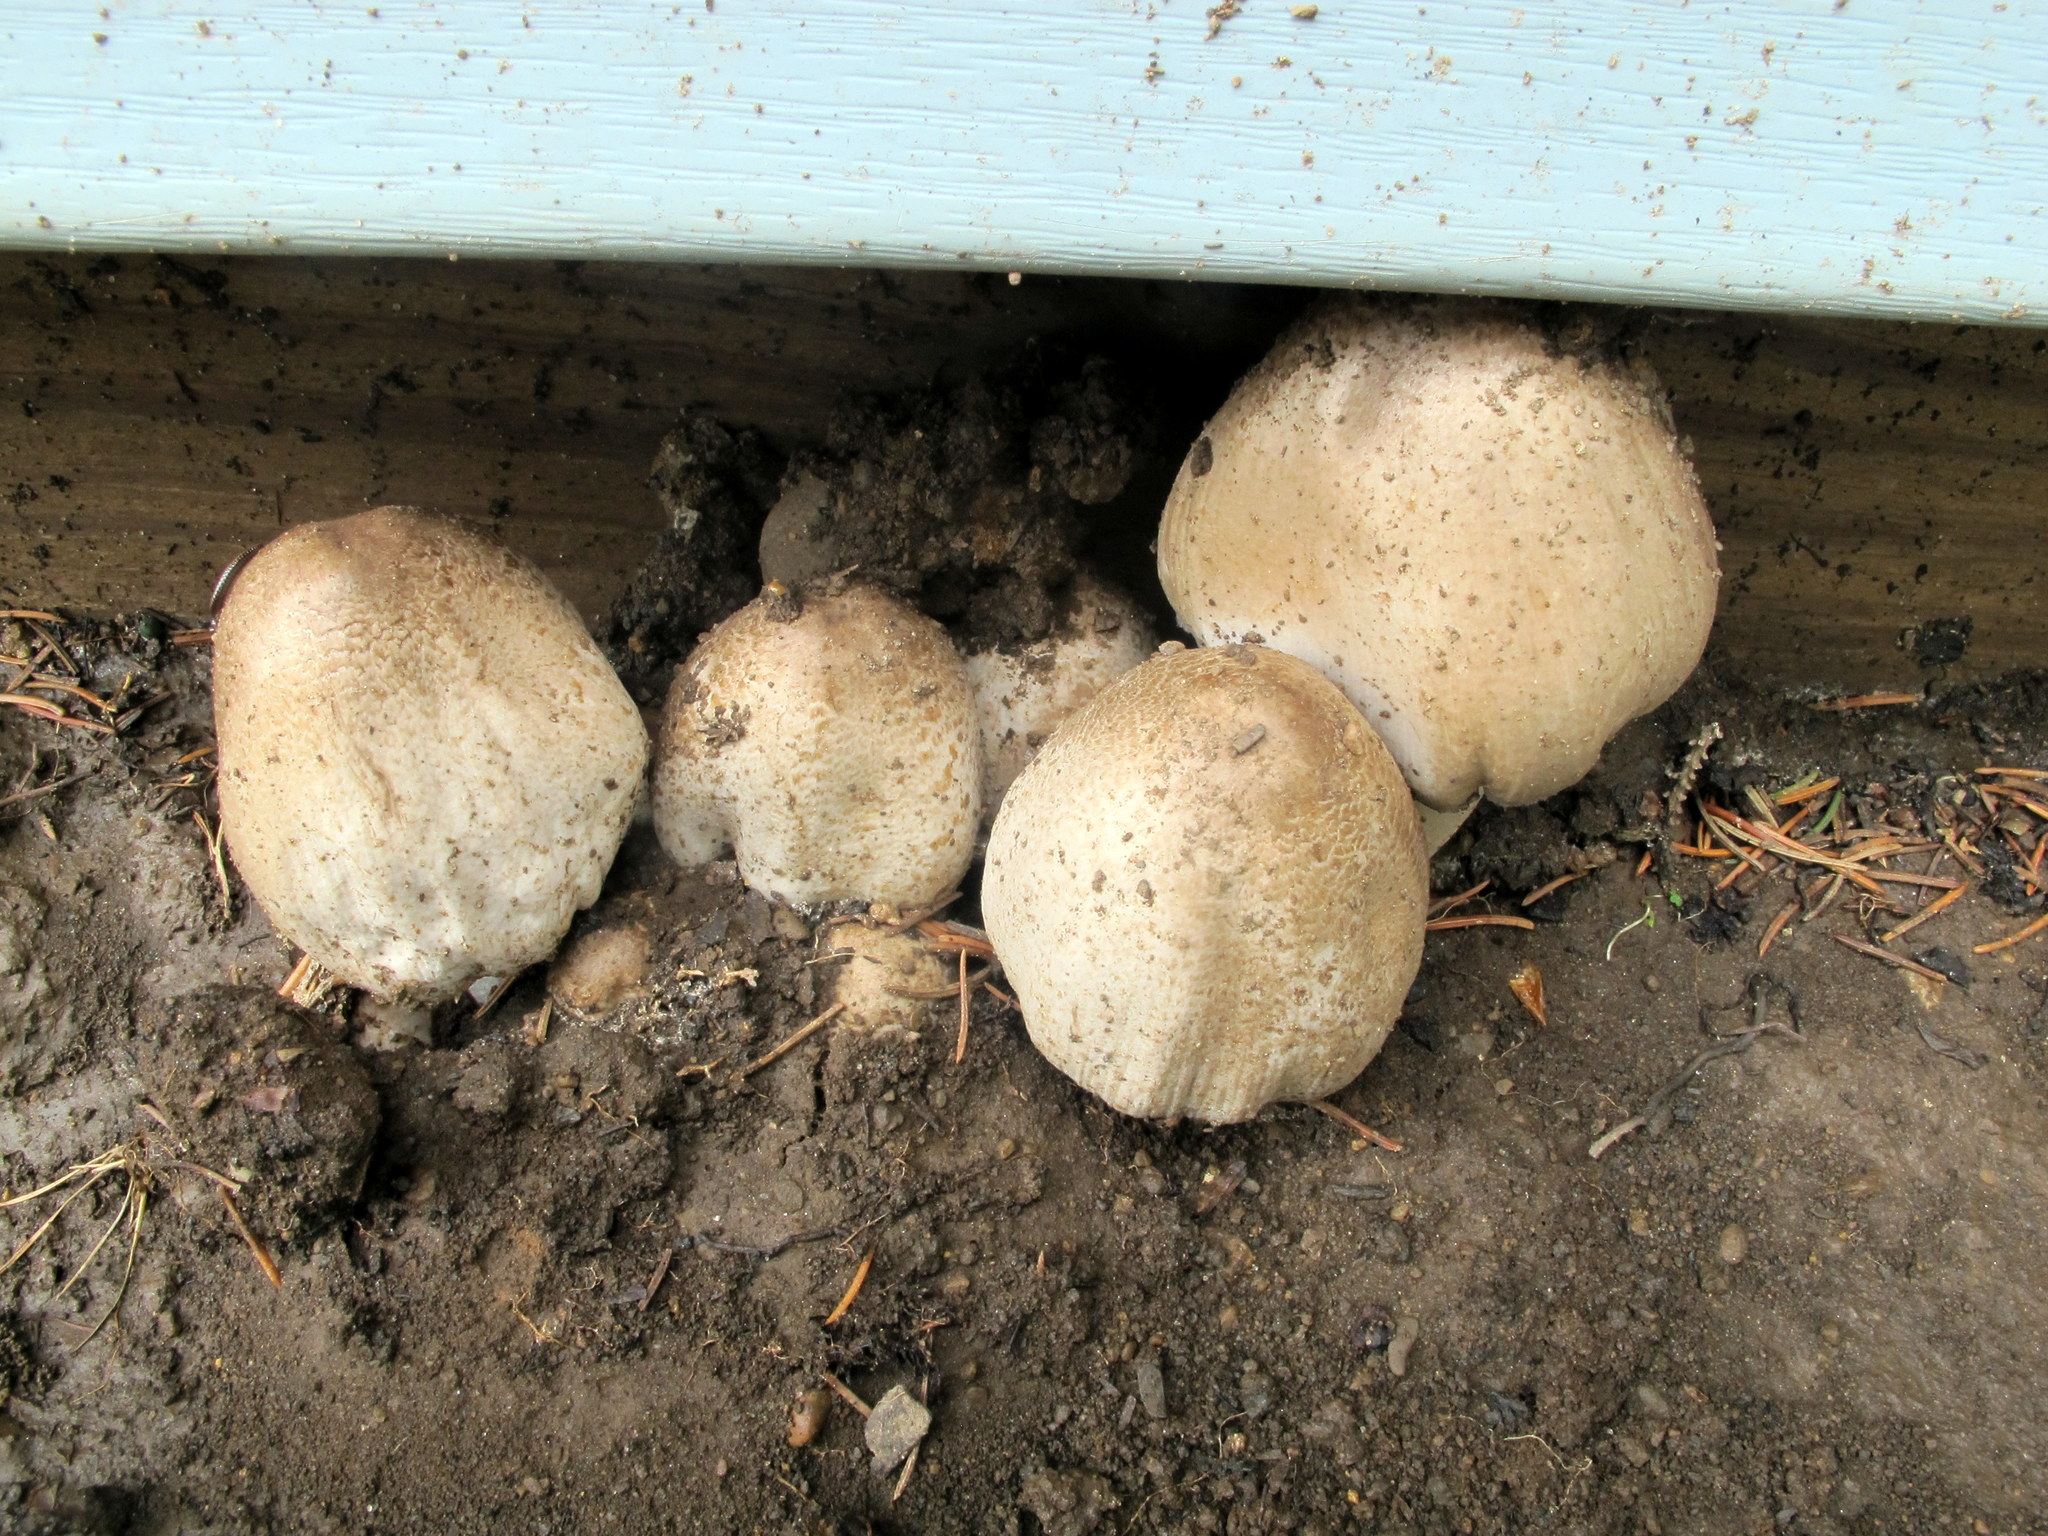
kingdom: Fungi
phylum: Basidiomycota
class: Agaricomycetes
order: Agaricales
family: Psathyrellaceae
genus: Coprinopsis
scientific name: Coprinopsis romagnesiana
